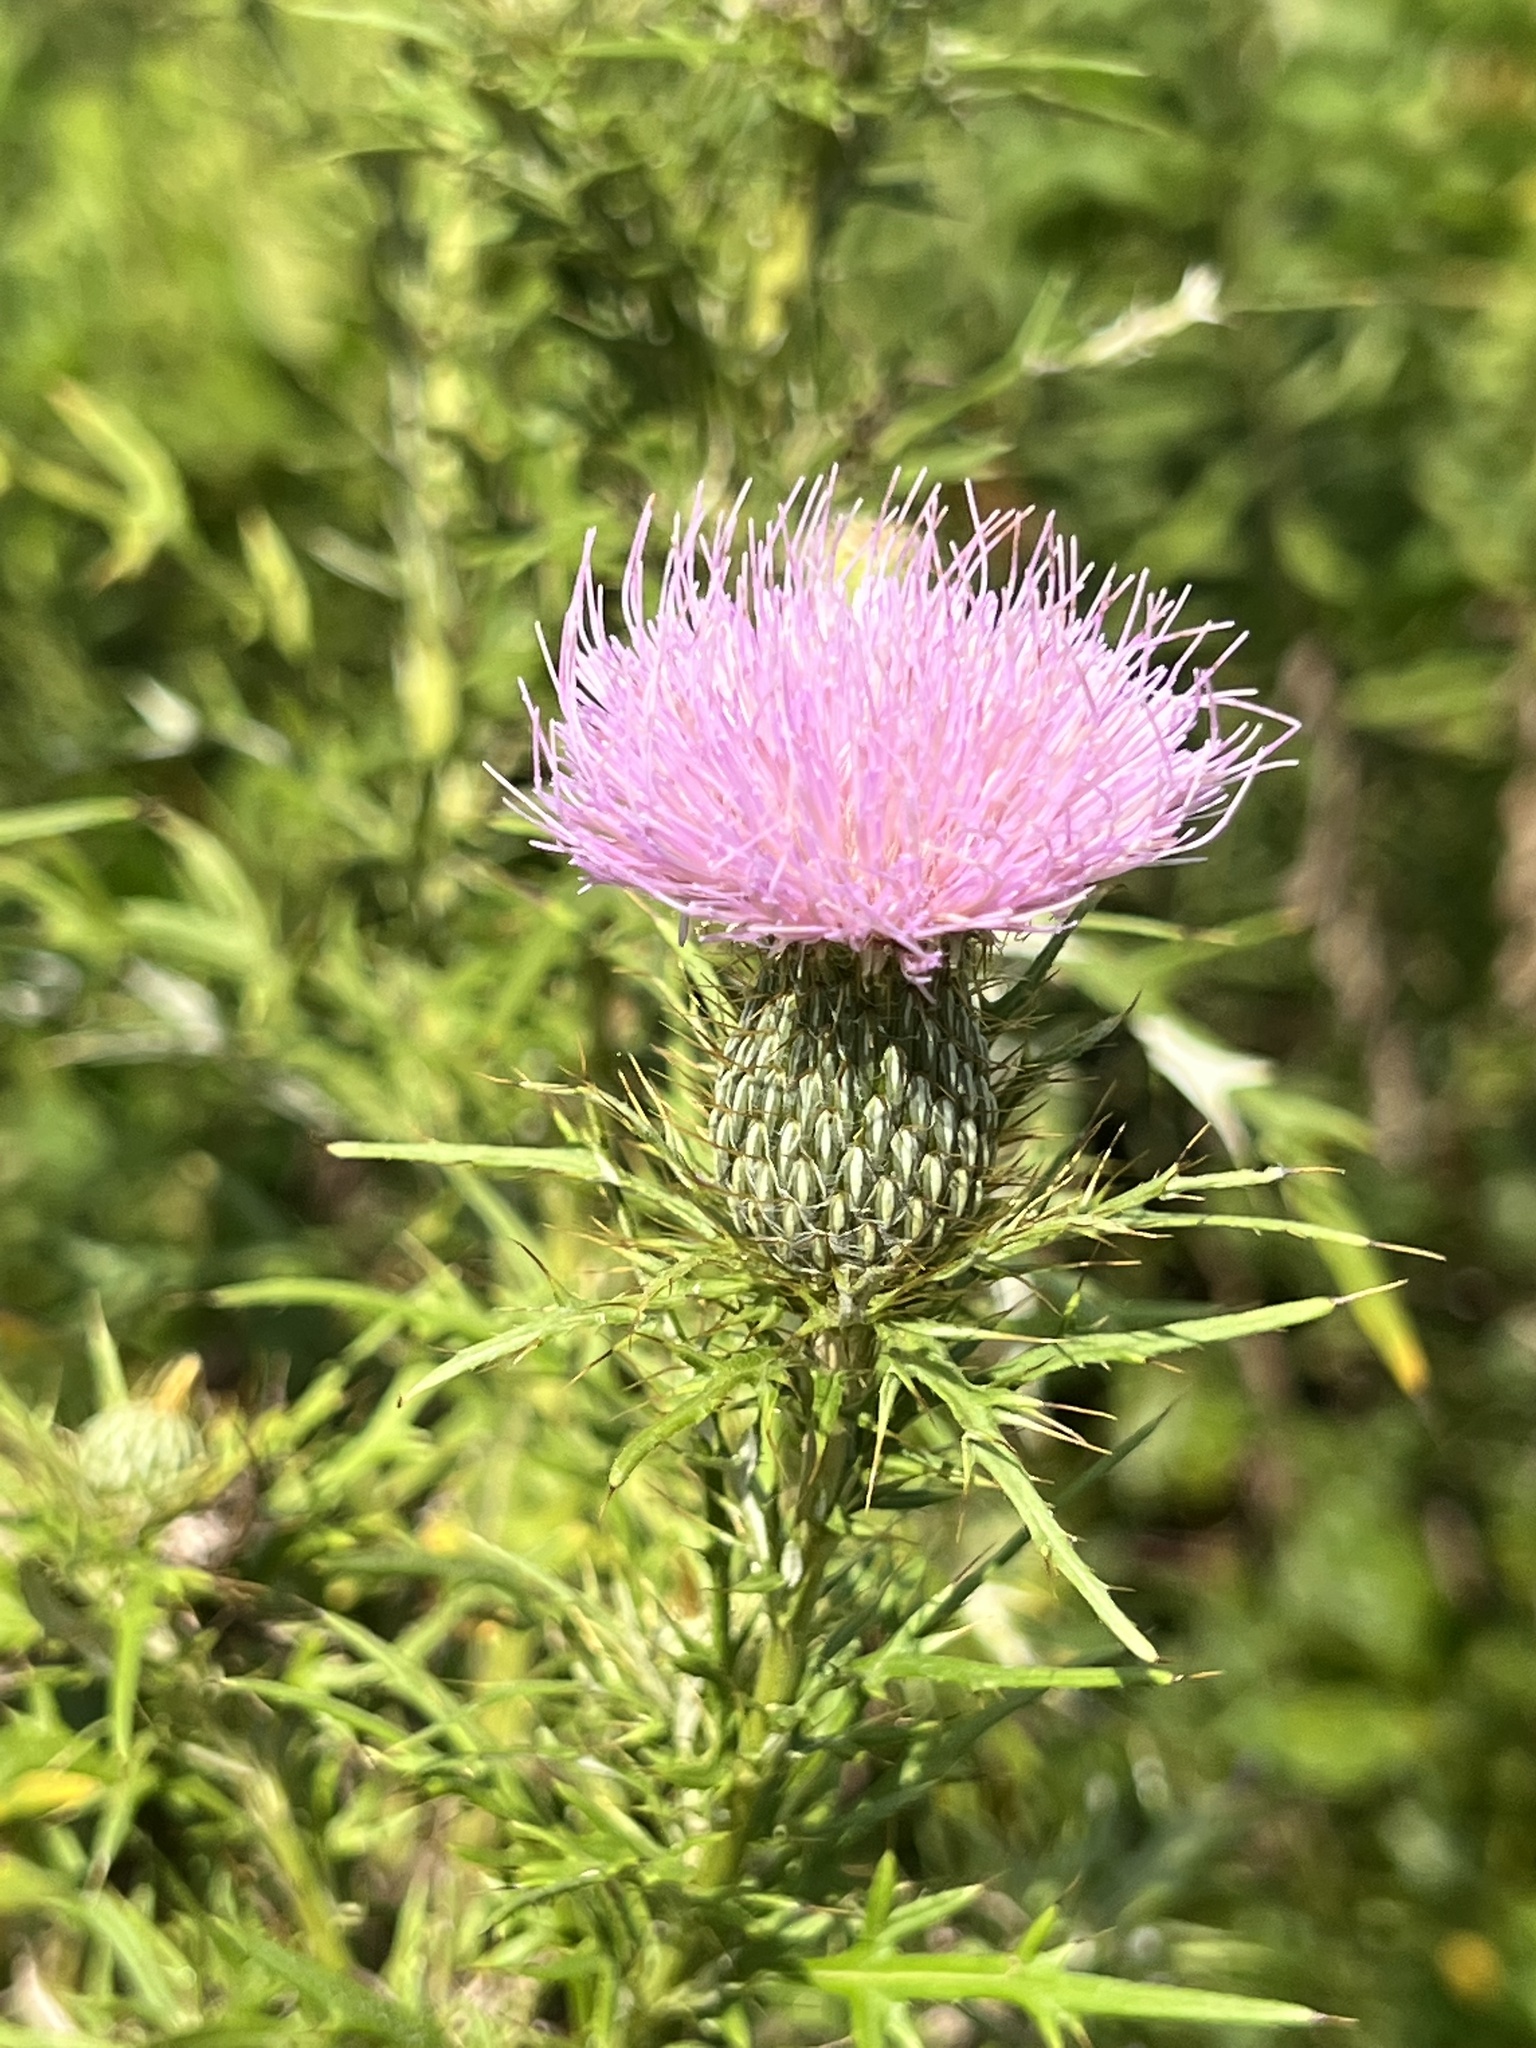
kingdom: Plantae
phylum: Tracheophyta
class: Magnoliopsida
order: Asterales
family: Asteraceae
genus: Cirsium
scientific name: Cirsium discolor
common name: Field thistle
